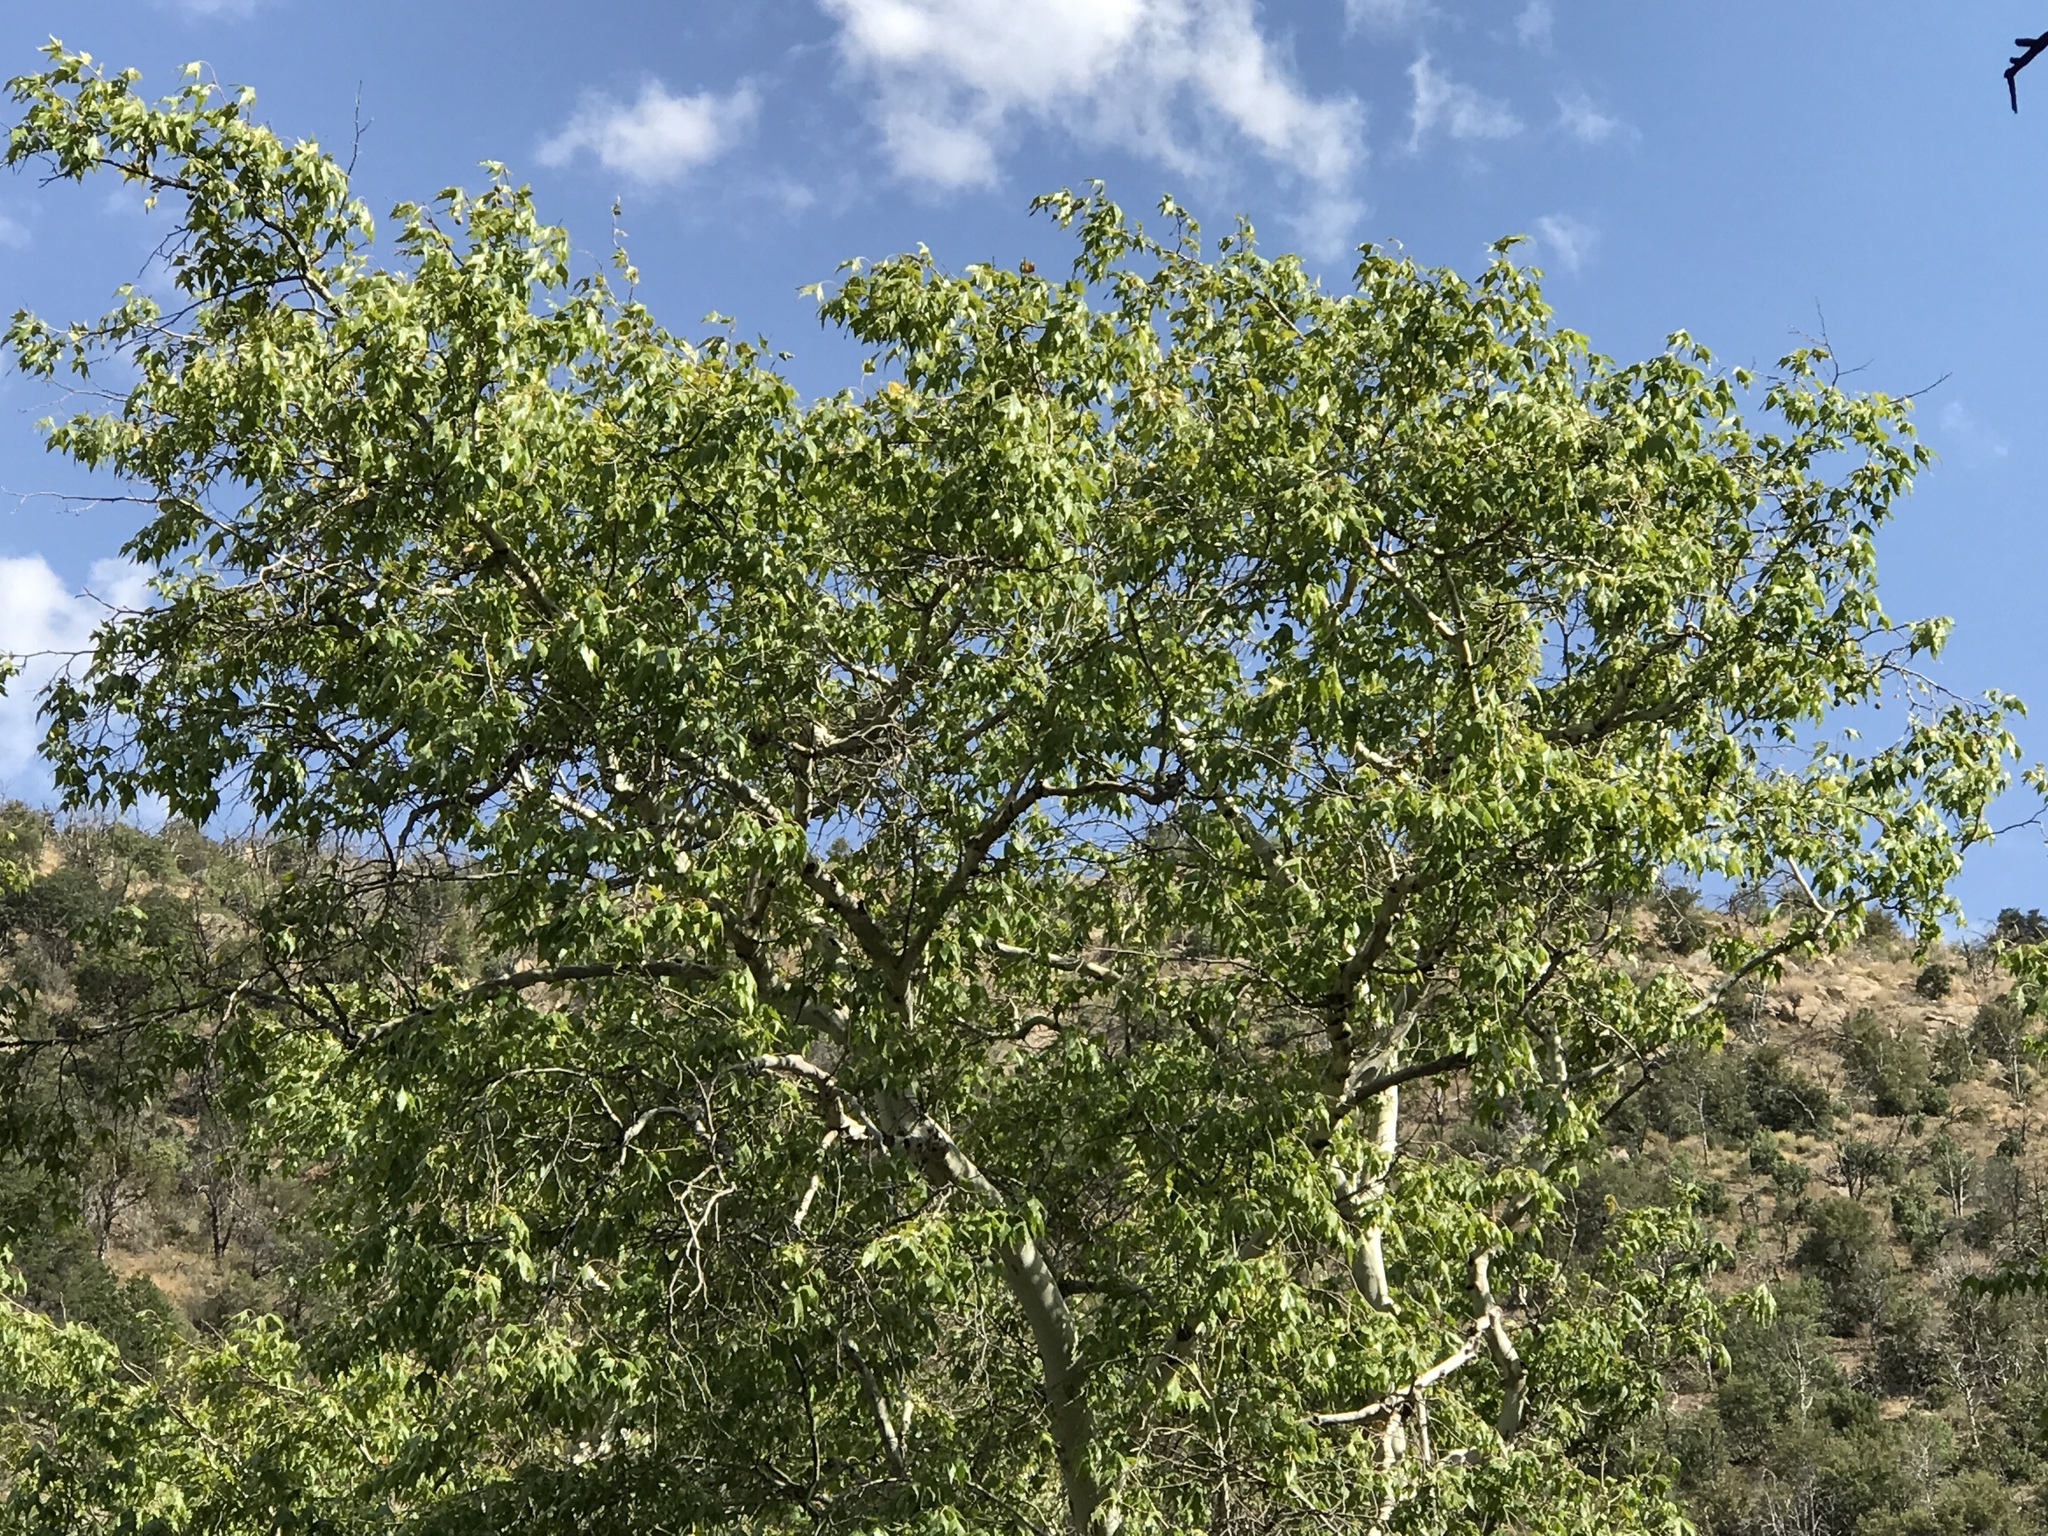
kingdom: Plantae
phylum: Tracheophyta
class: Magnoliopsida
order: Proteales
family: Platanaceae
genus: Platanus
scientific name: Platanus wrightii
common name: Arizona sycamore
